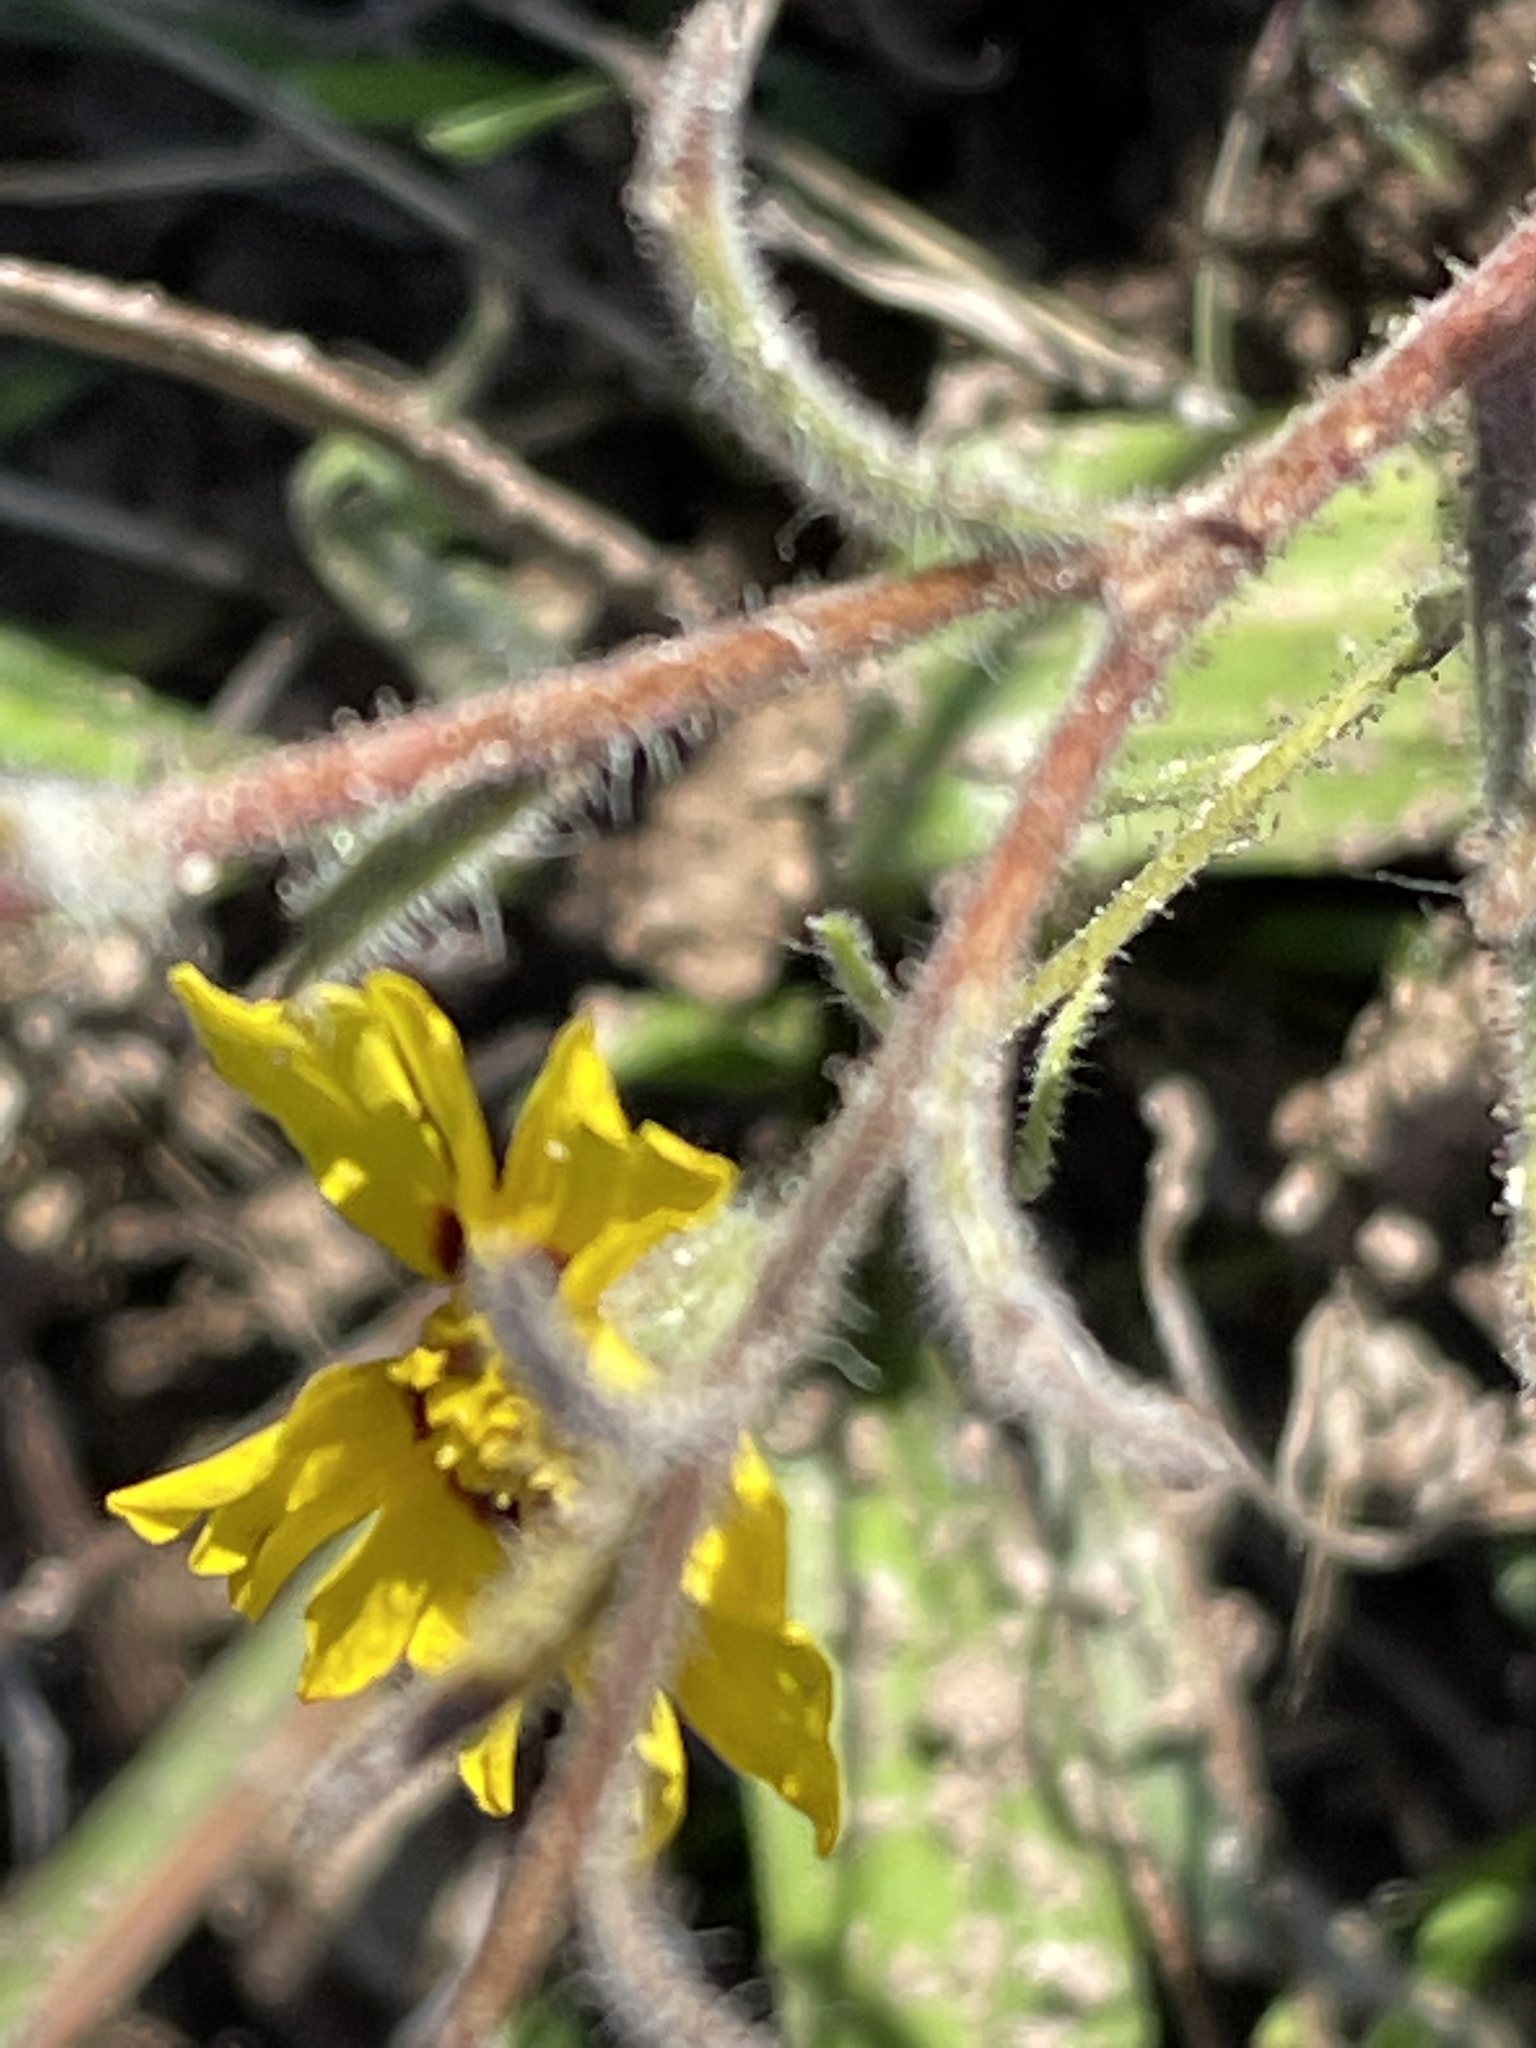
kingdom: Plantae
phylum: Tracheophyta
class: Magnoliopsida
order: Asterales
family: Asteraceae
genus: Madia
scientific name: Madia elegans
